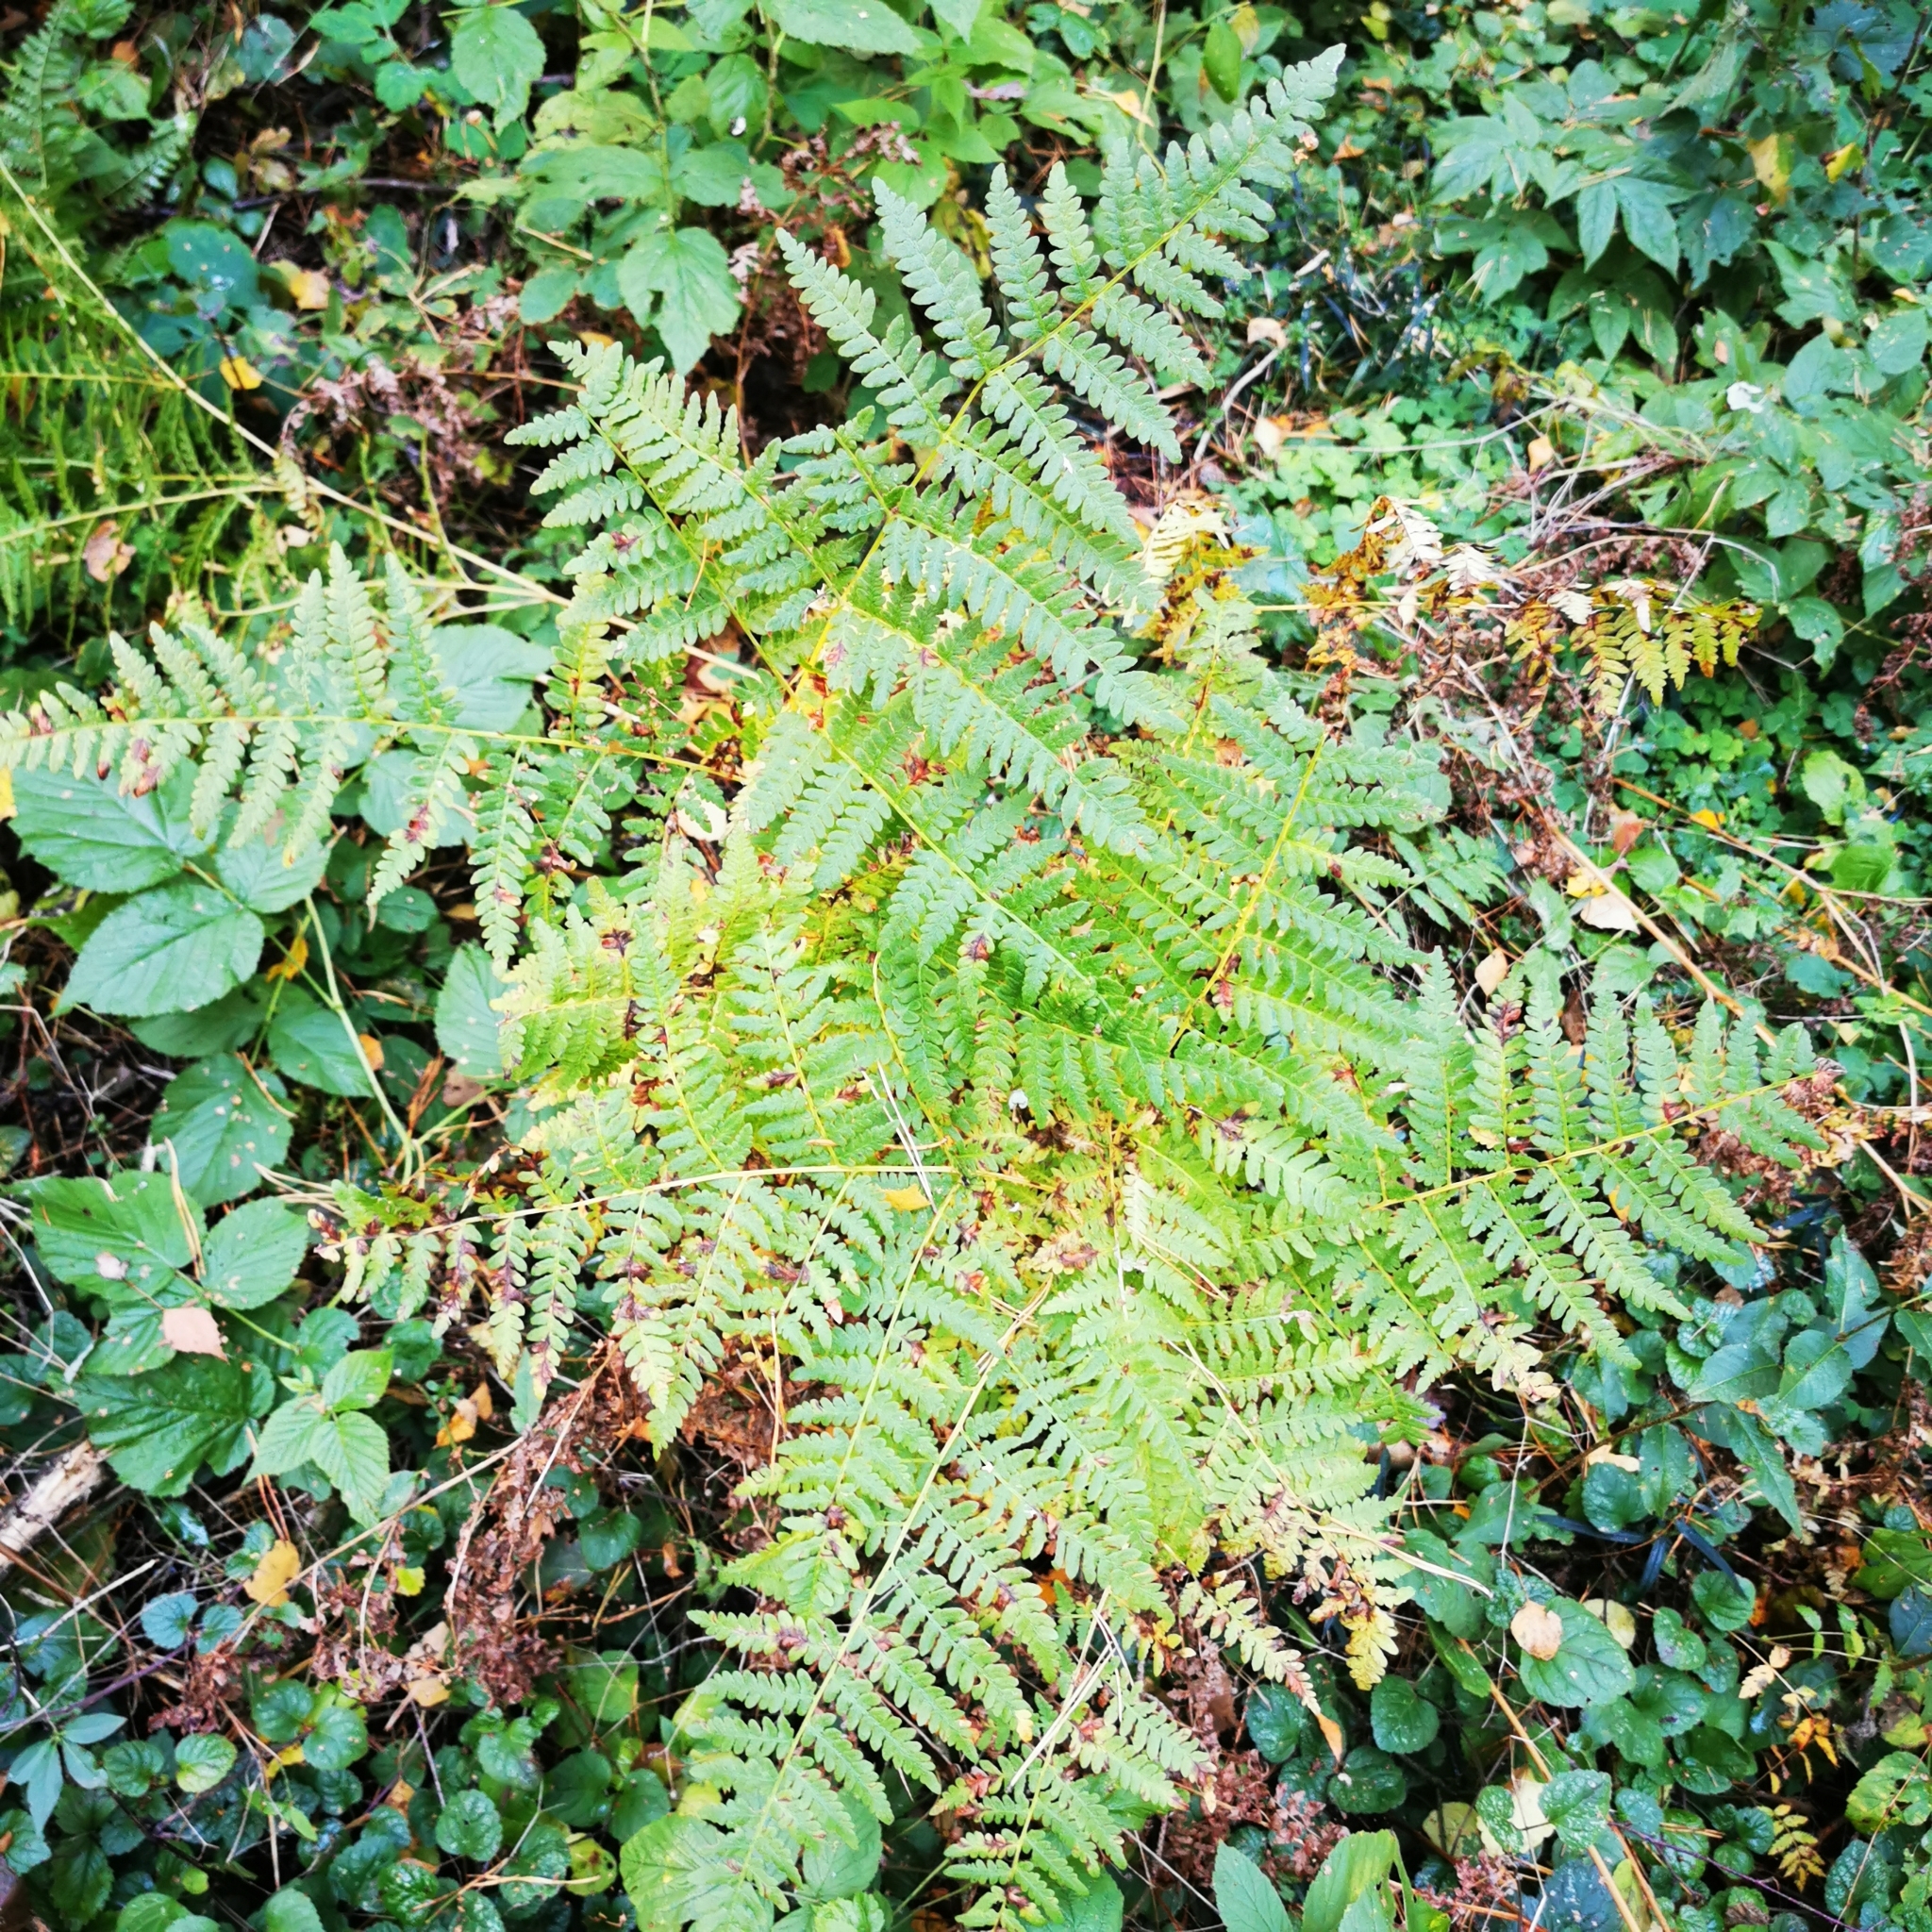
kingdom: Plantae
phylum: Tracheophyta
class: Polypodiopsida
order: Polypodiales
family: Dennstaedtiaceae
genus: Pteridium
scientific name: Pteridium aquilinum
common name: Bracken
